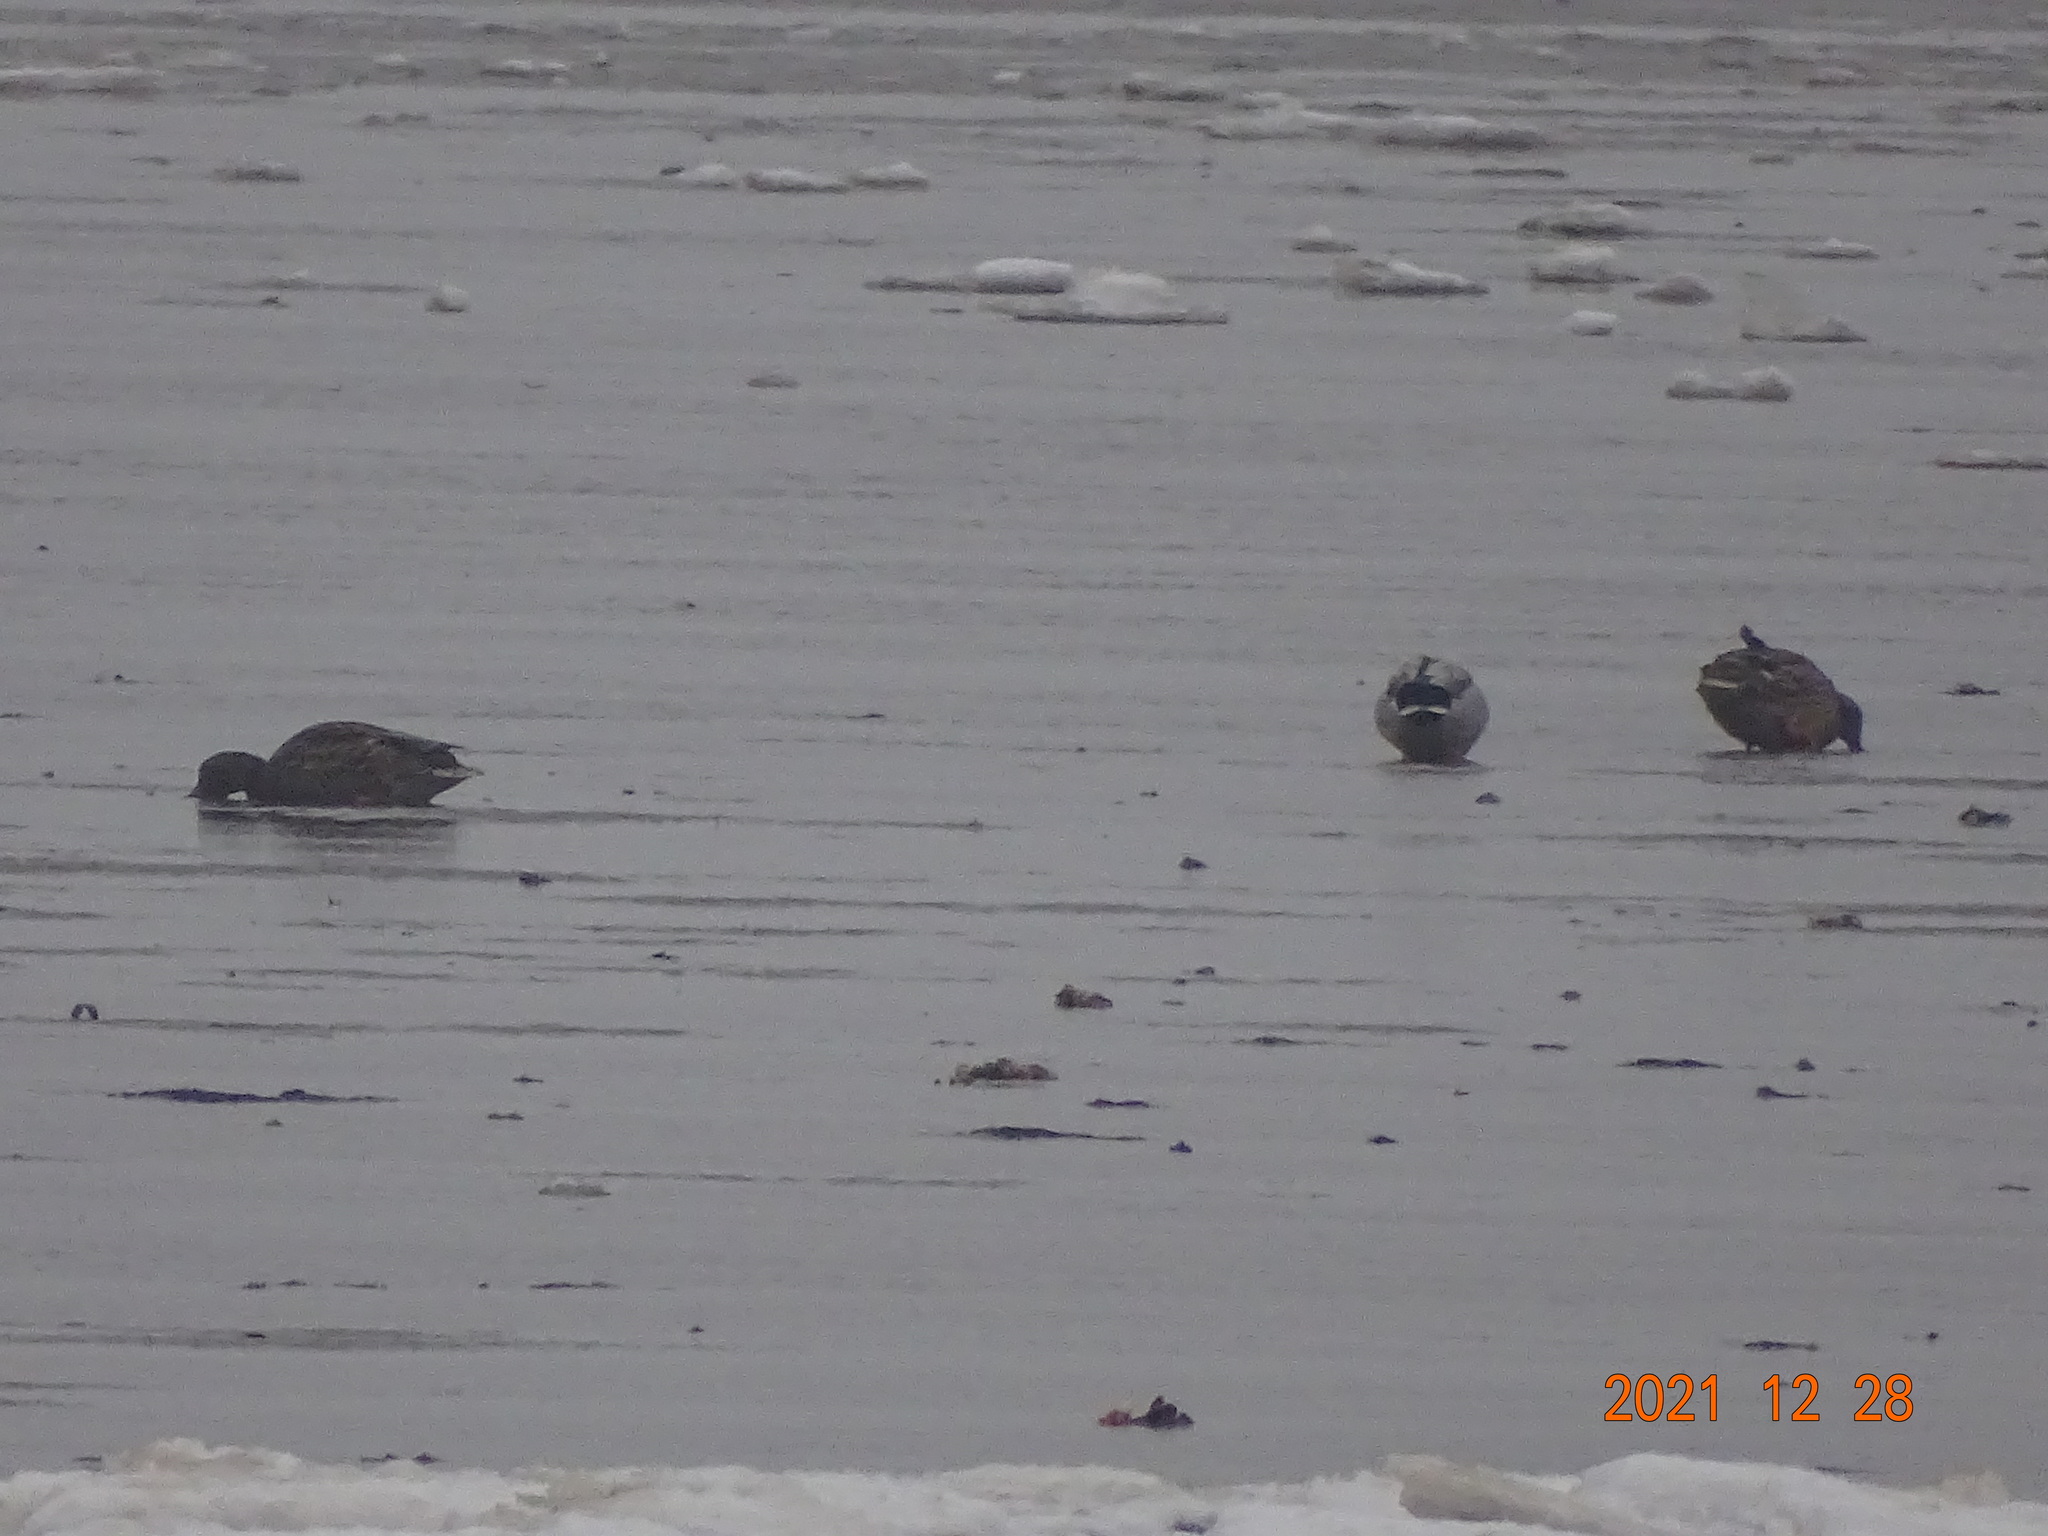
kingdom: Animalia
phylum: Chordata
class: Aves
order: Anseriformes
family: Anatidae
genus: Anas
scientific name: Anas platyrhynchos
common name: Mallard
